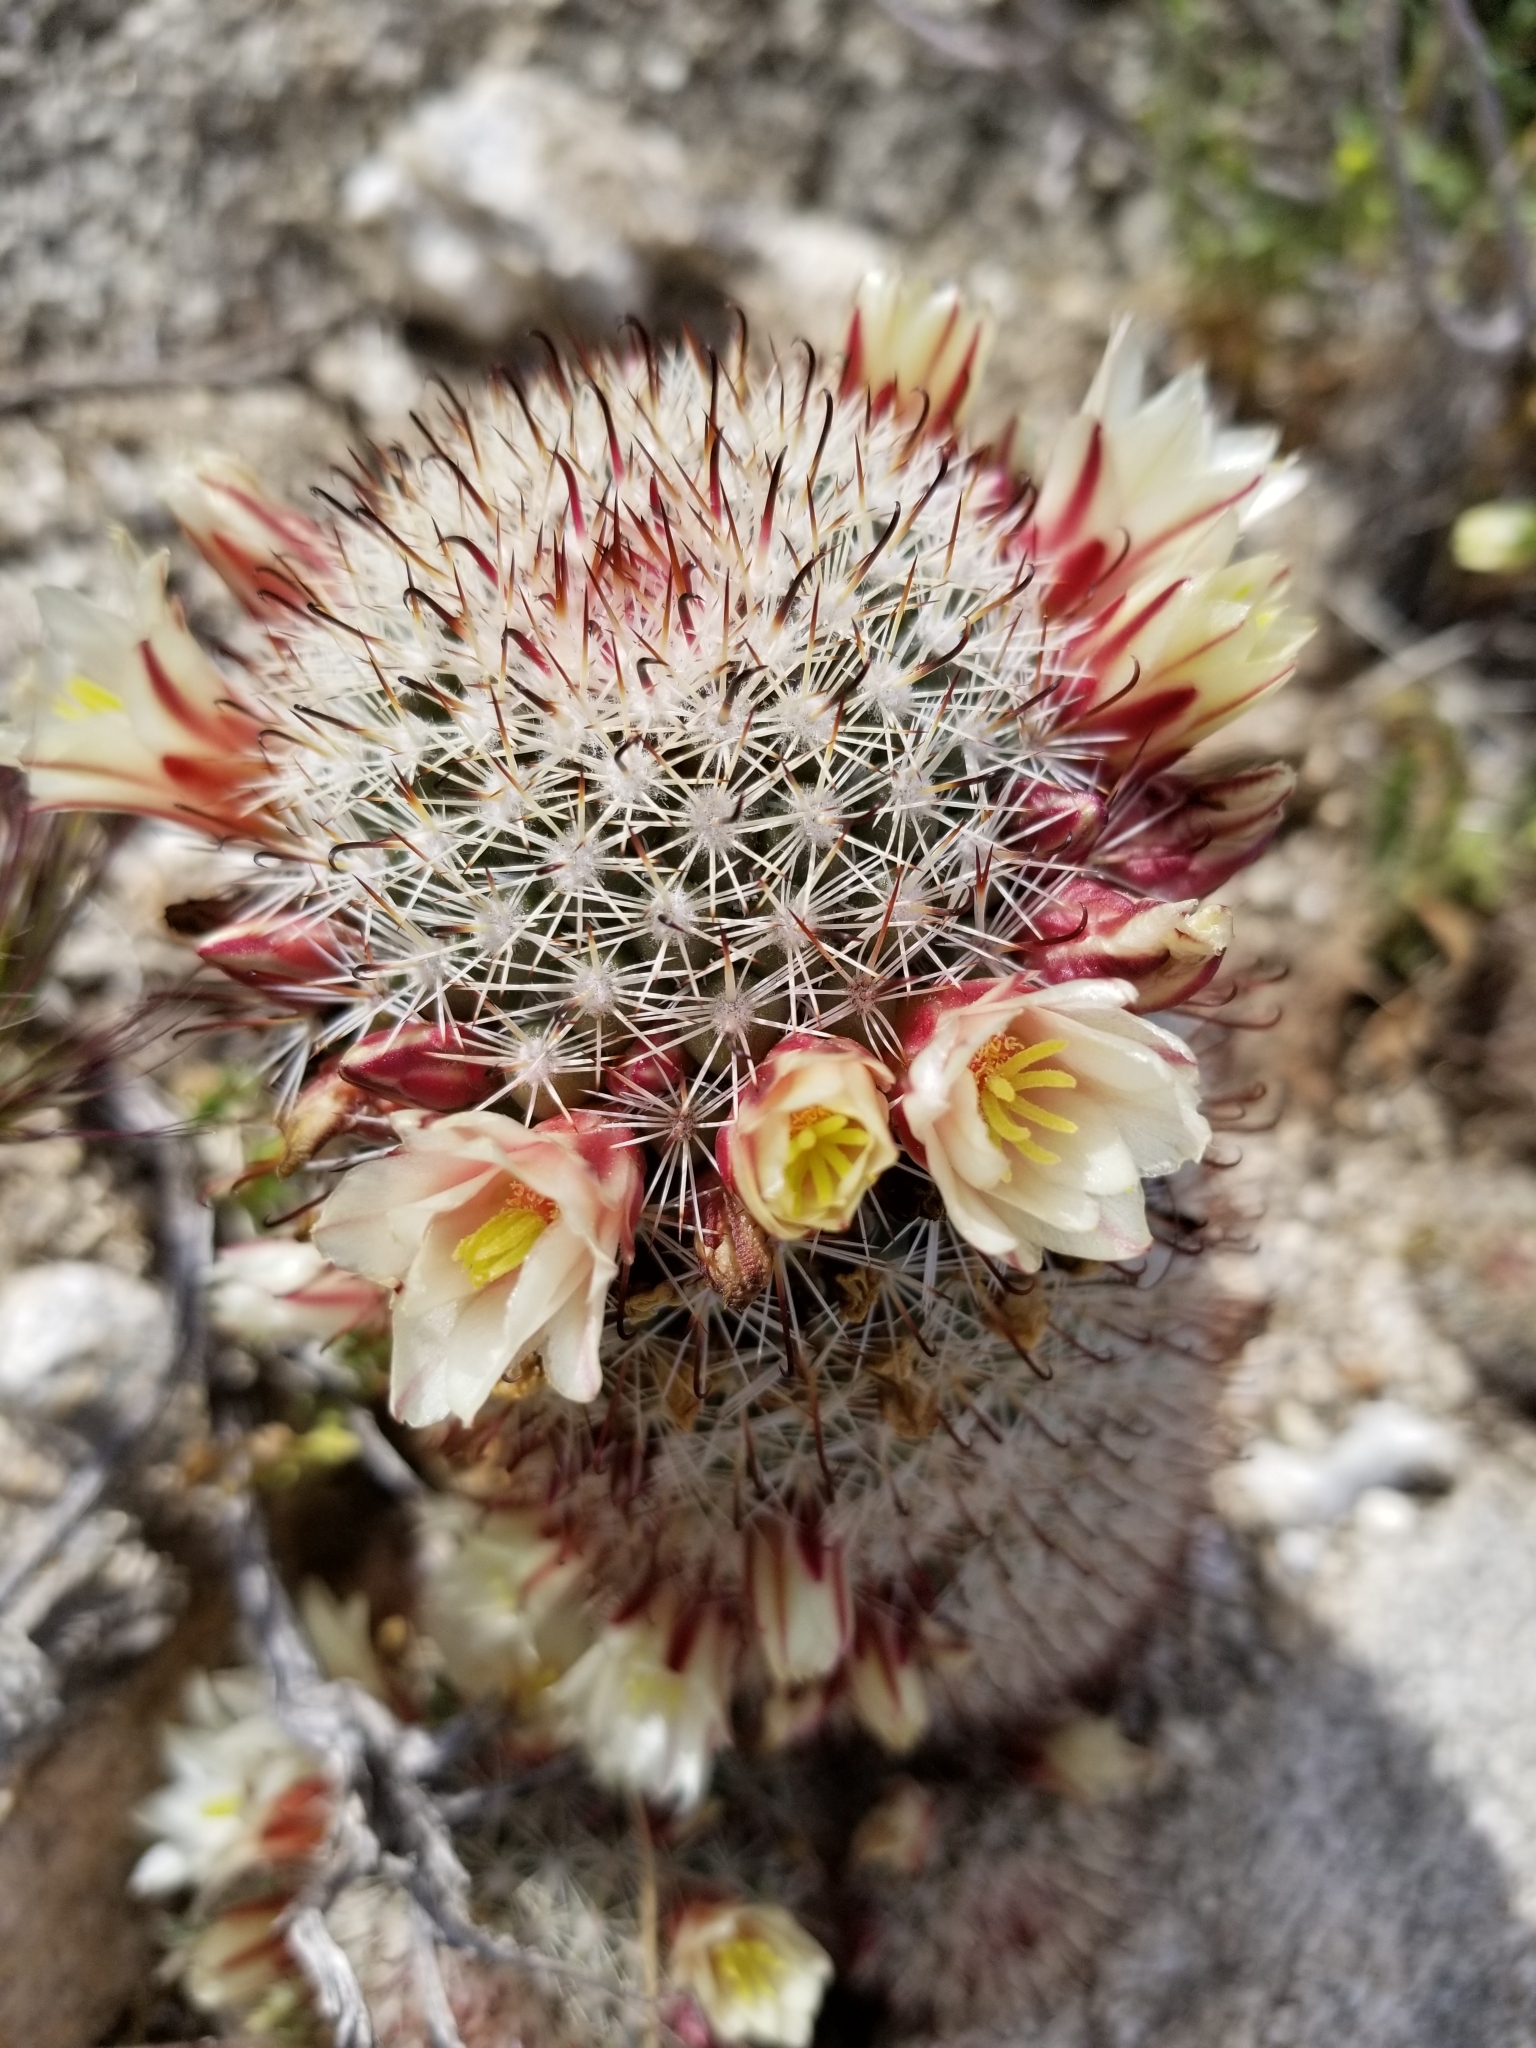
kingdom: Plantae
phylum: Tracheophyta
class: Magnoliopsida
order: Caryophyllales
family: Cactaceae
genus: Cochemiea
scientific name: Cochemiea dioica
